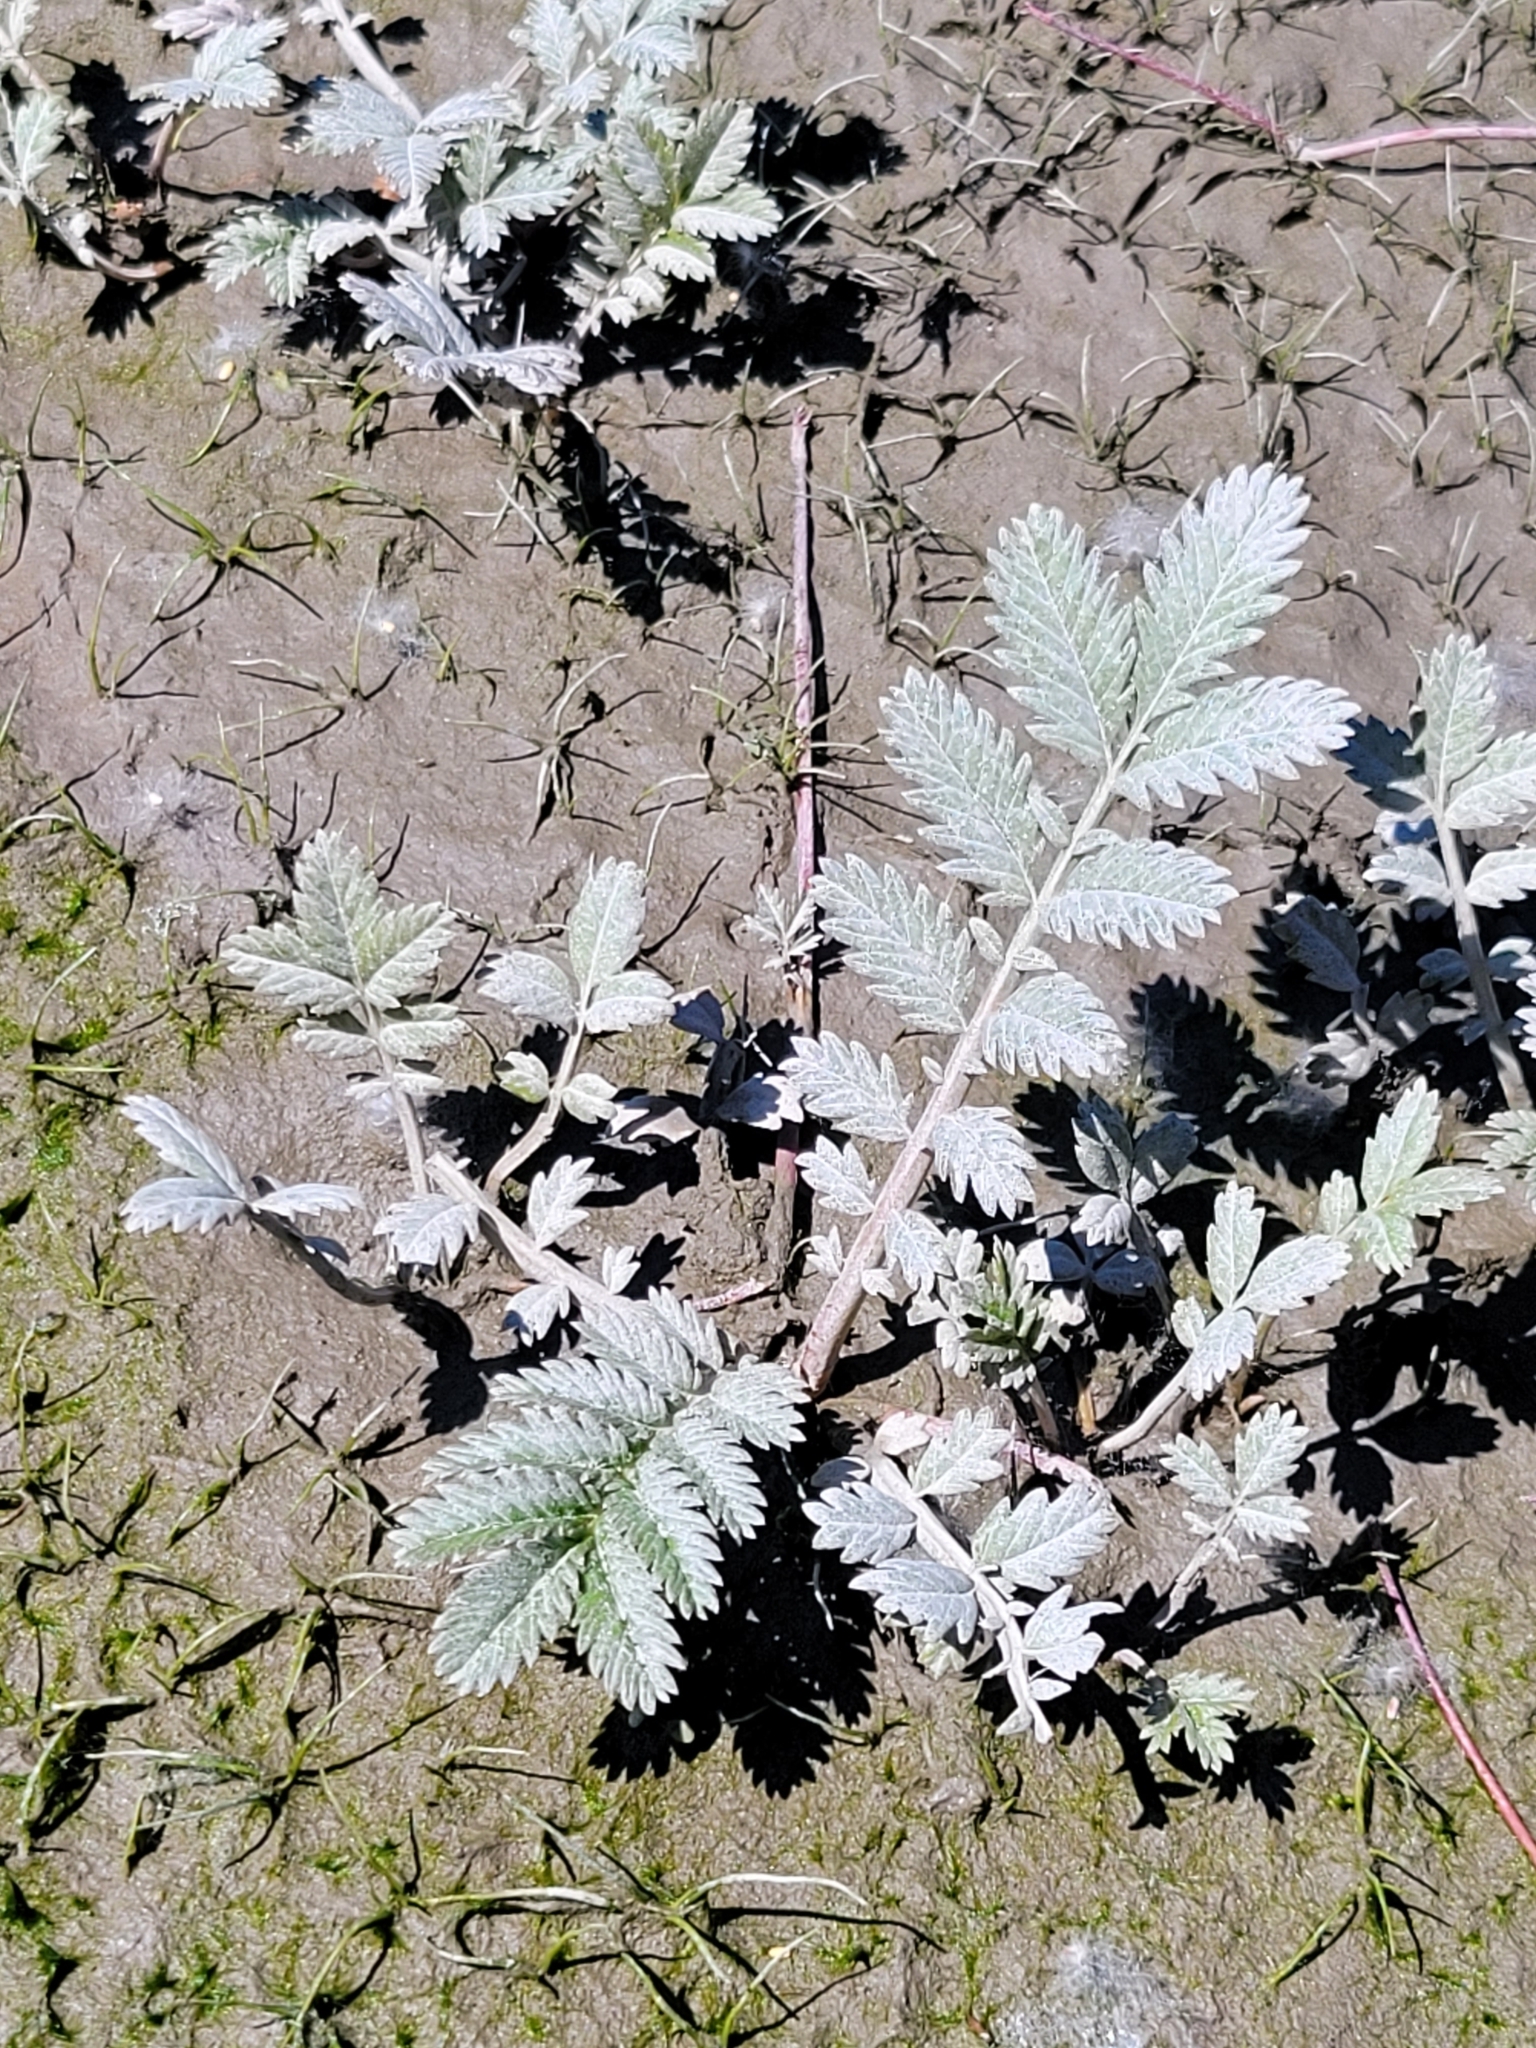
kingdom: Plantae
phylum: Tracheophyta
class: Magnoliopsida
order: Rosales
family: Rosaceae
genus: Argentina
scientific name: Argentina anserina
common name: Common silverweed
